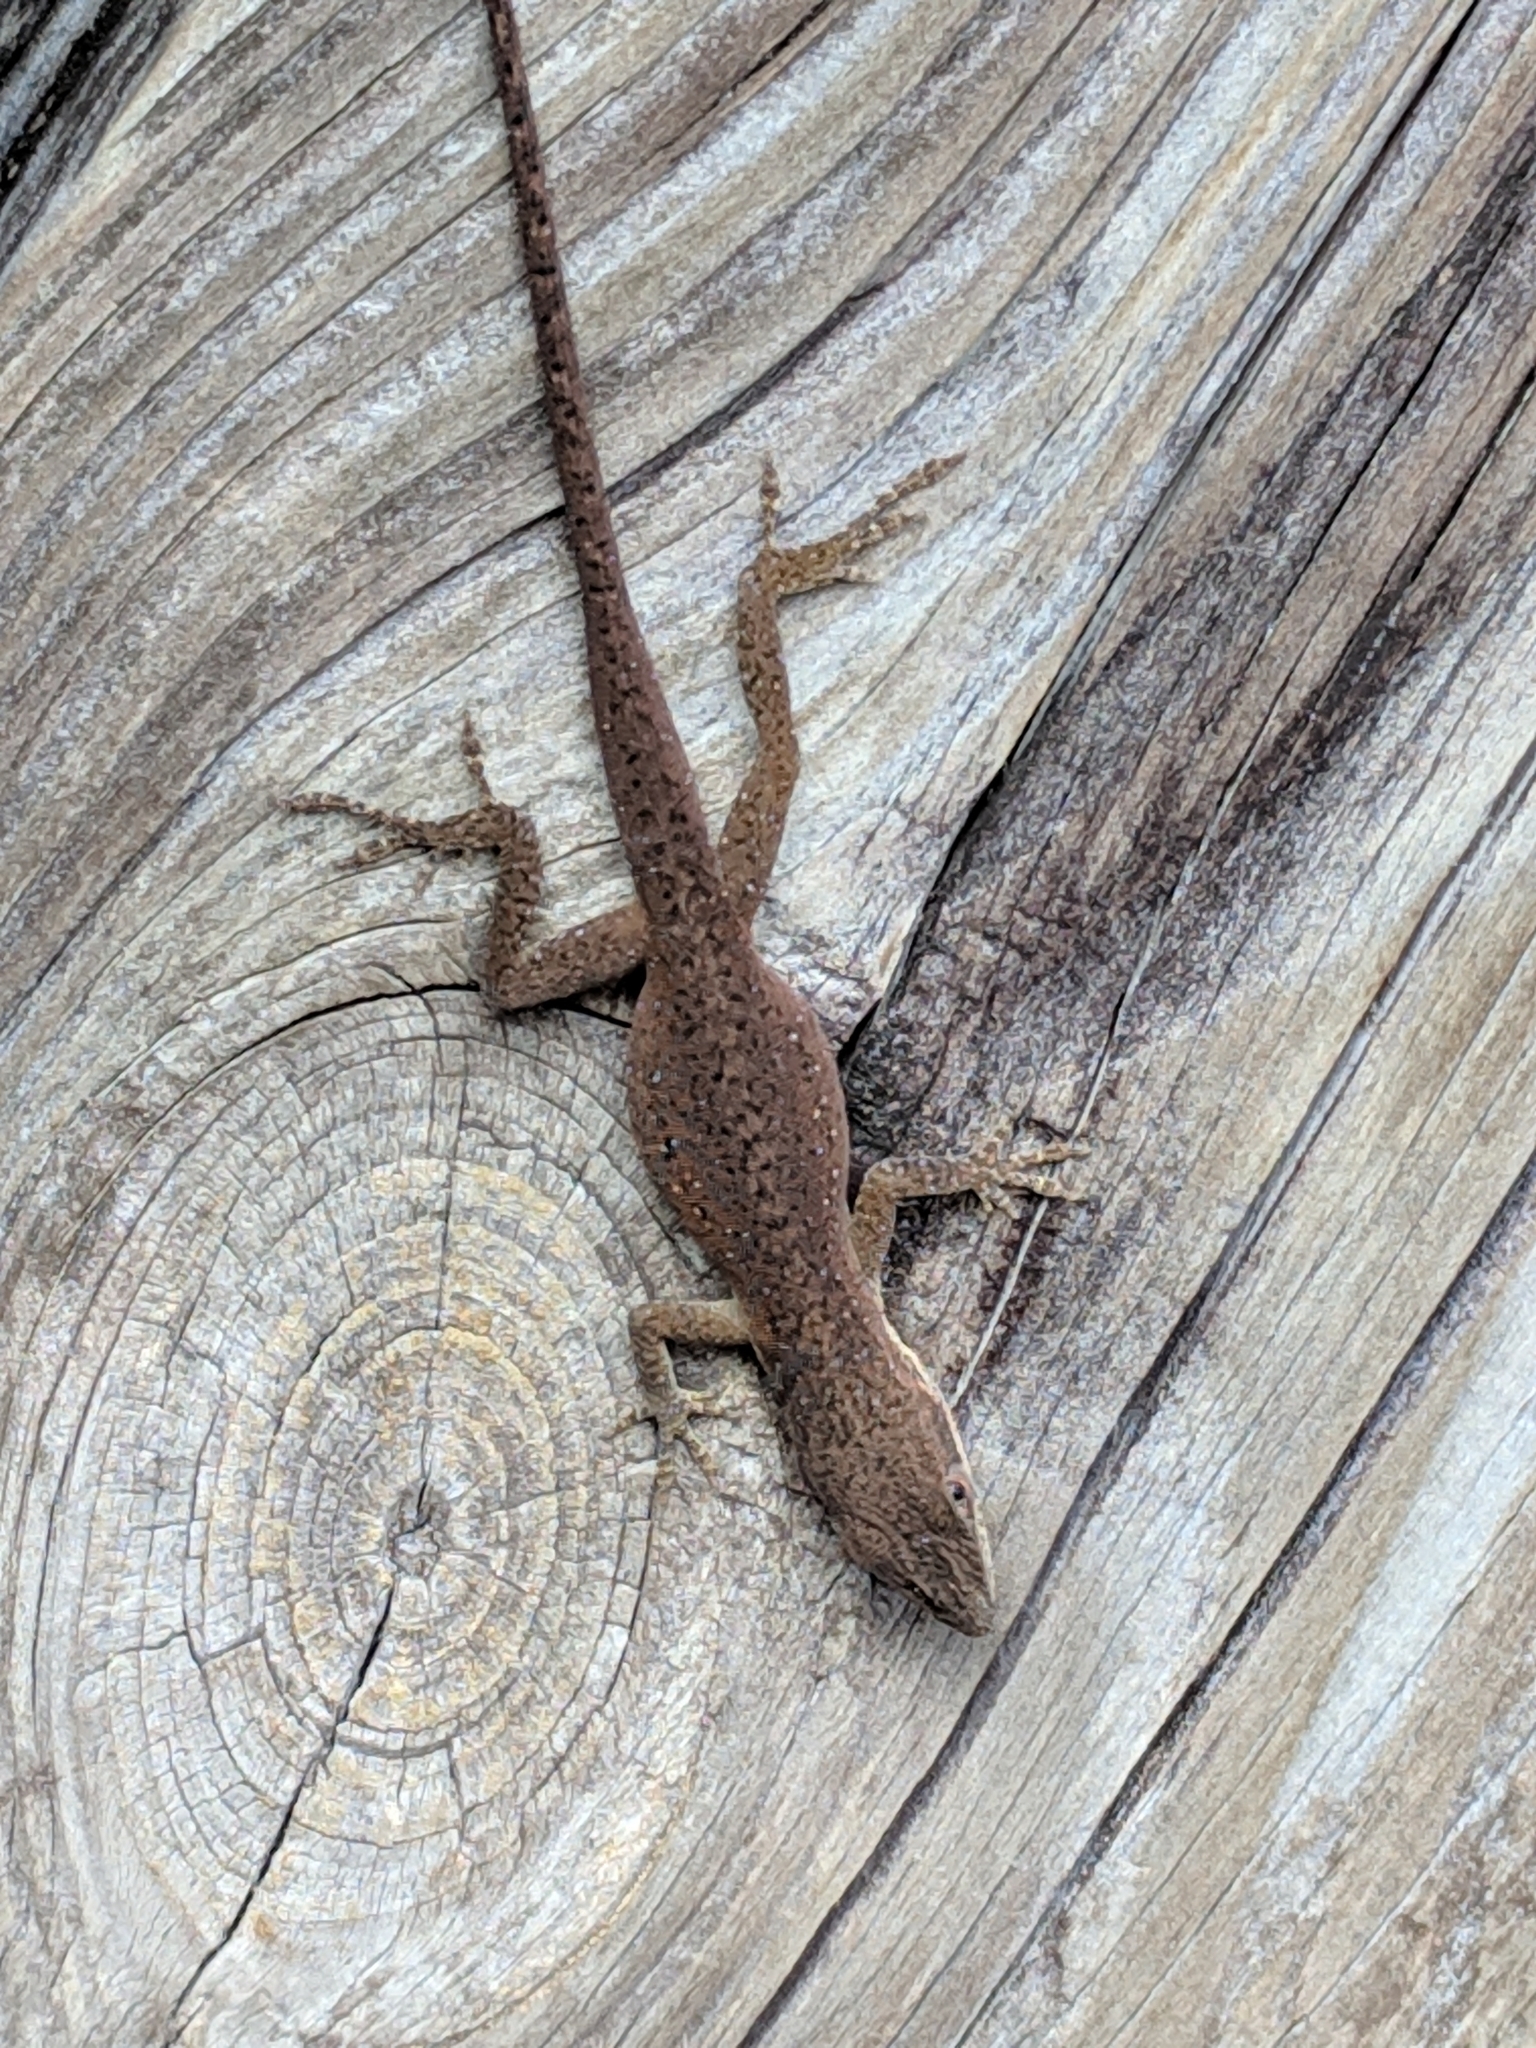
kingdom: Animalia
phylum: Chordata
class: Squamata
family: Dactyloidae
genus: Anolis
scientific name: Anolis carolinensis
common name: Green anole
